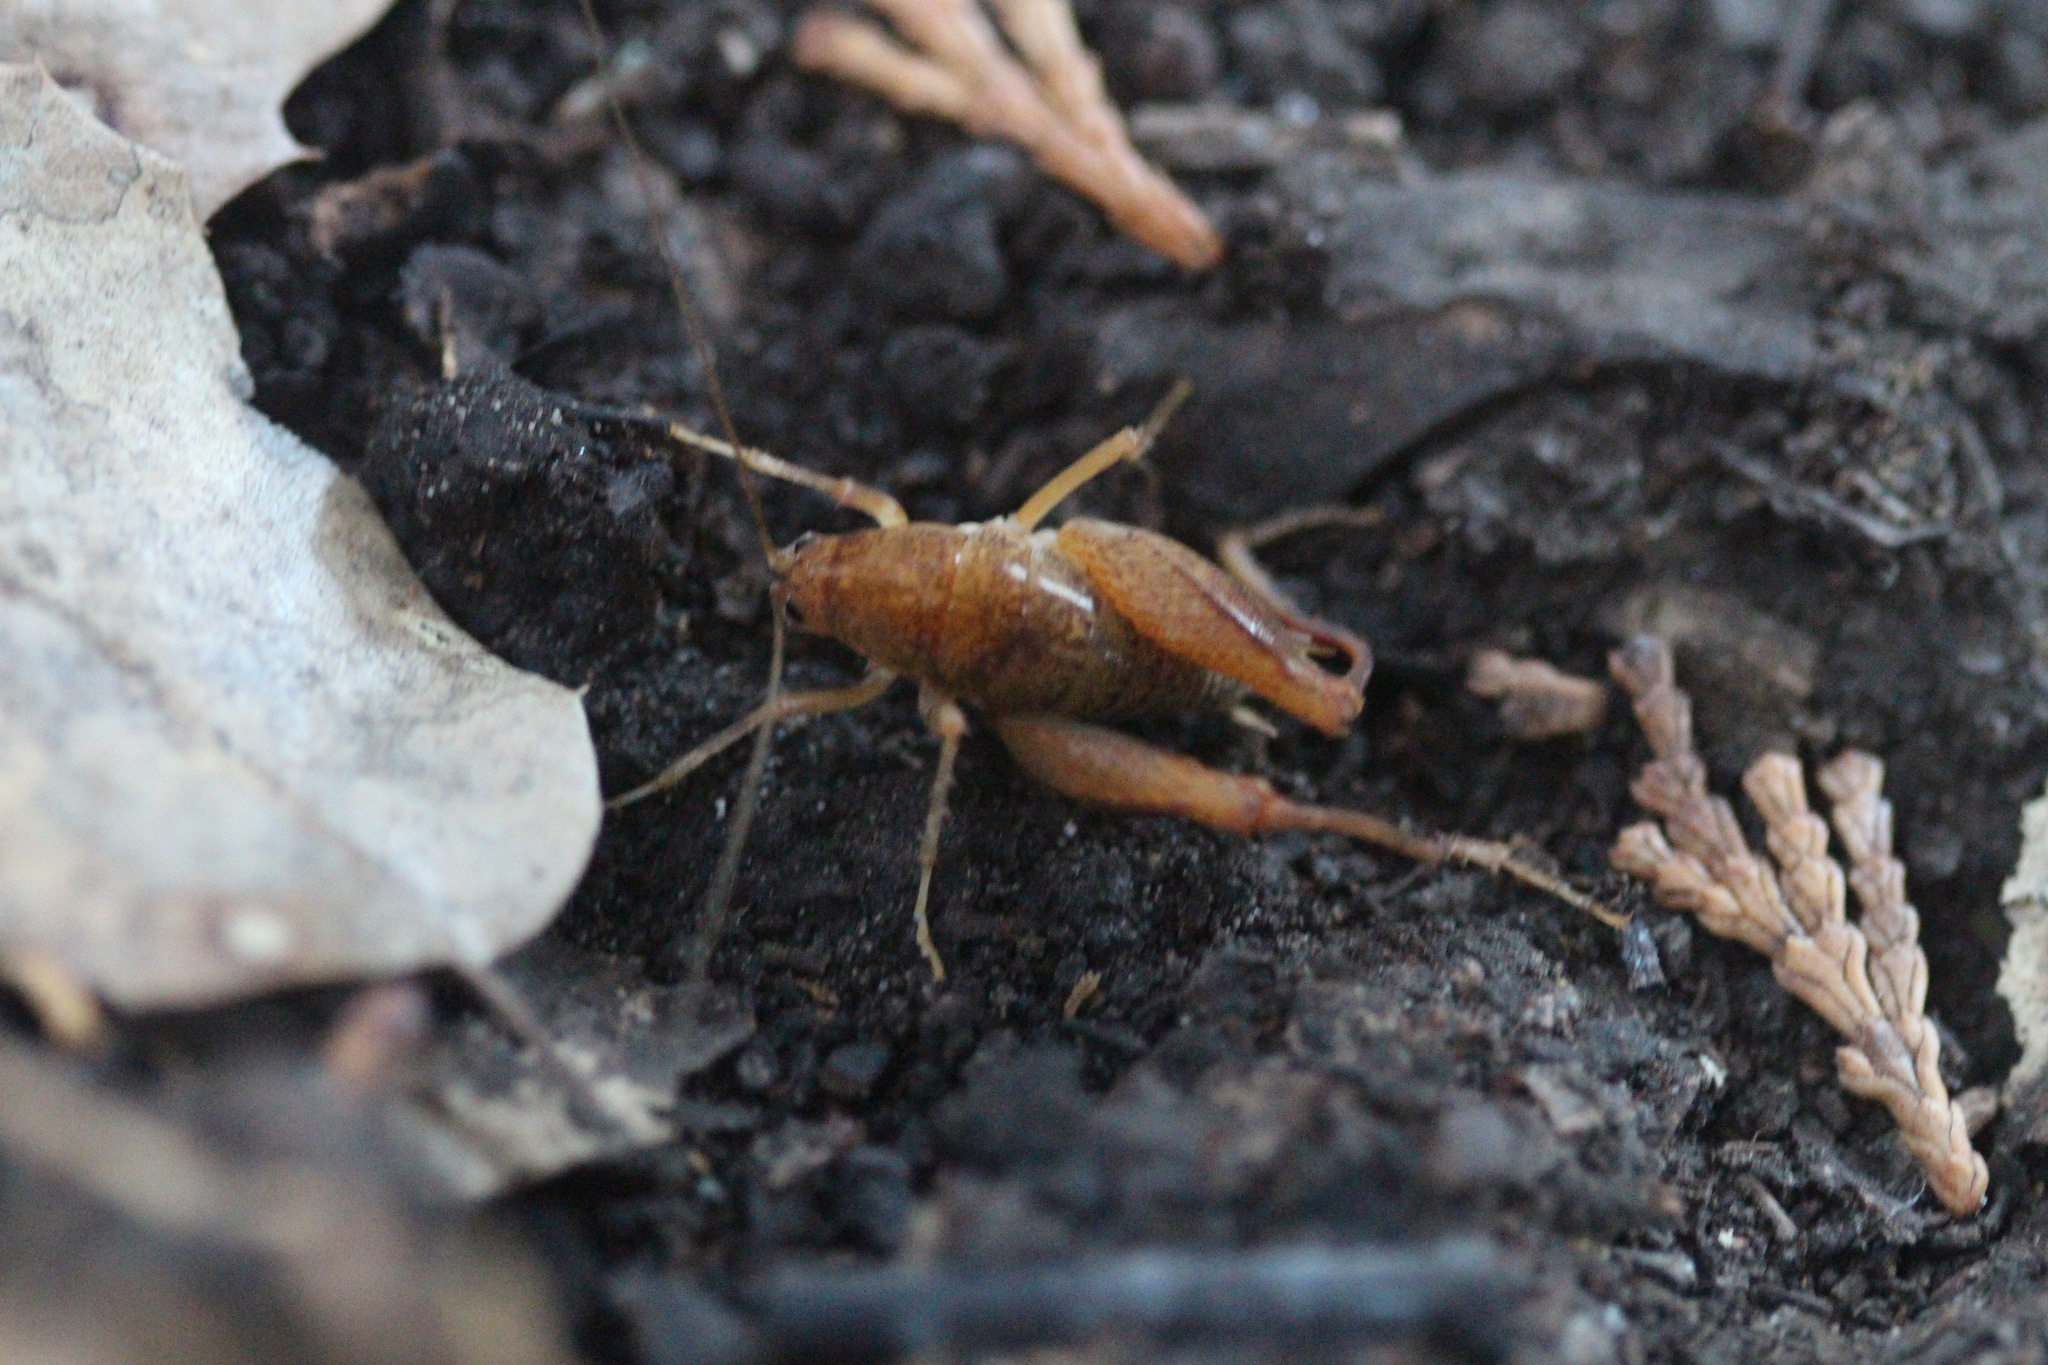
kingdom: Animalia
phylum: Arthropoda
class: Insecta
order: Orthoptera
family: Rhaphidophoridae
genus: Pristoceuthophilus
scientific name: Pristoceuthophilus pacificus
